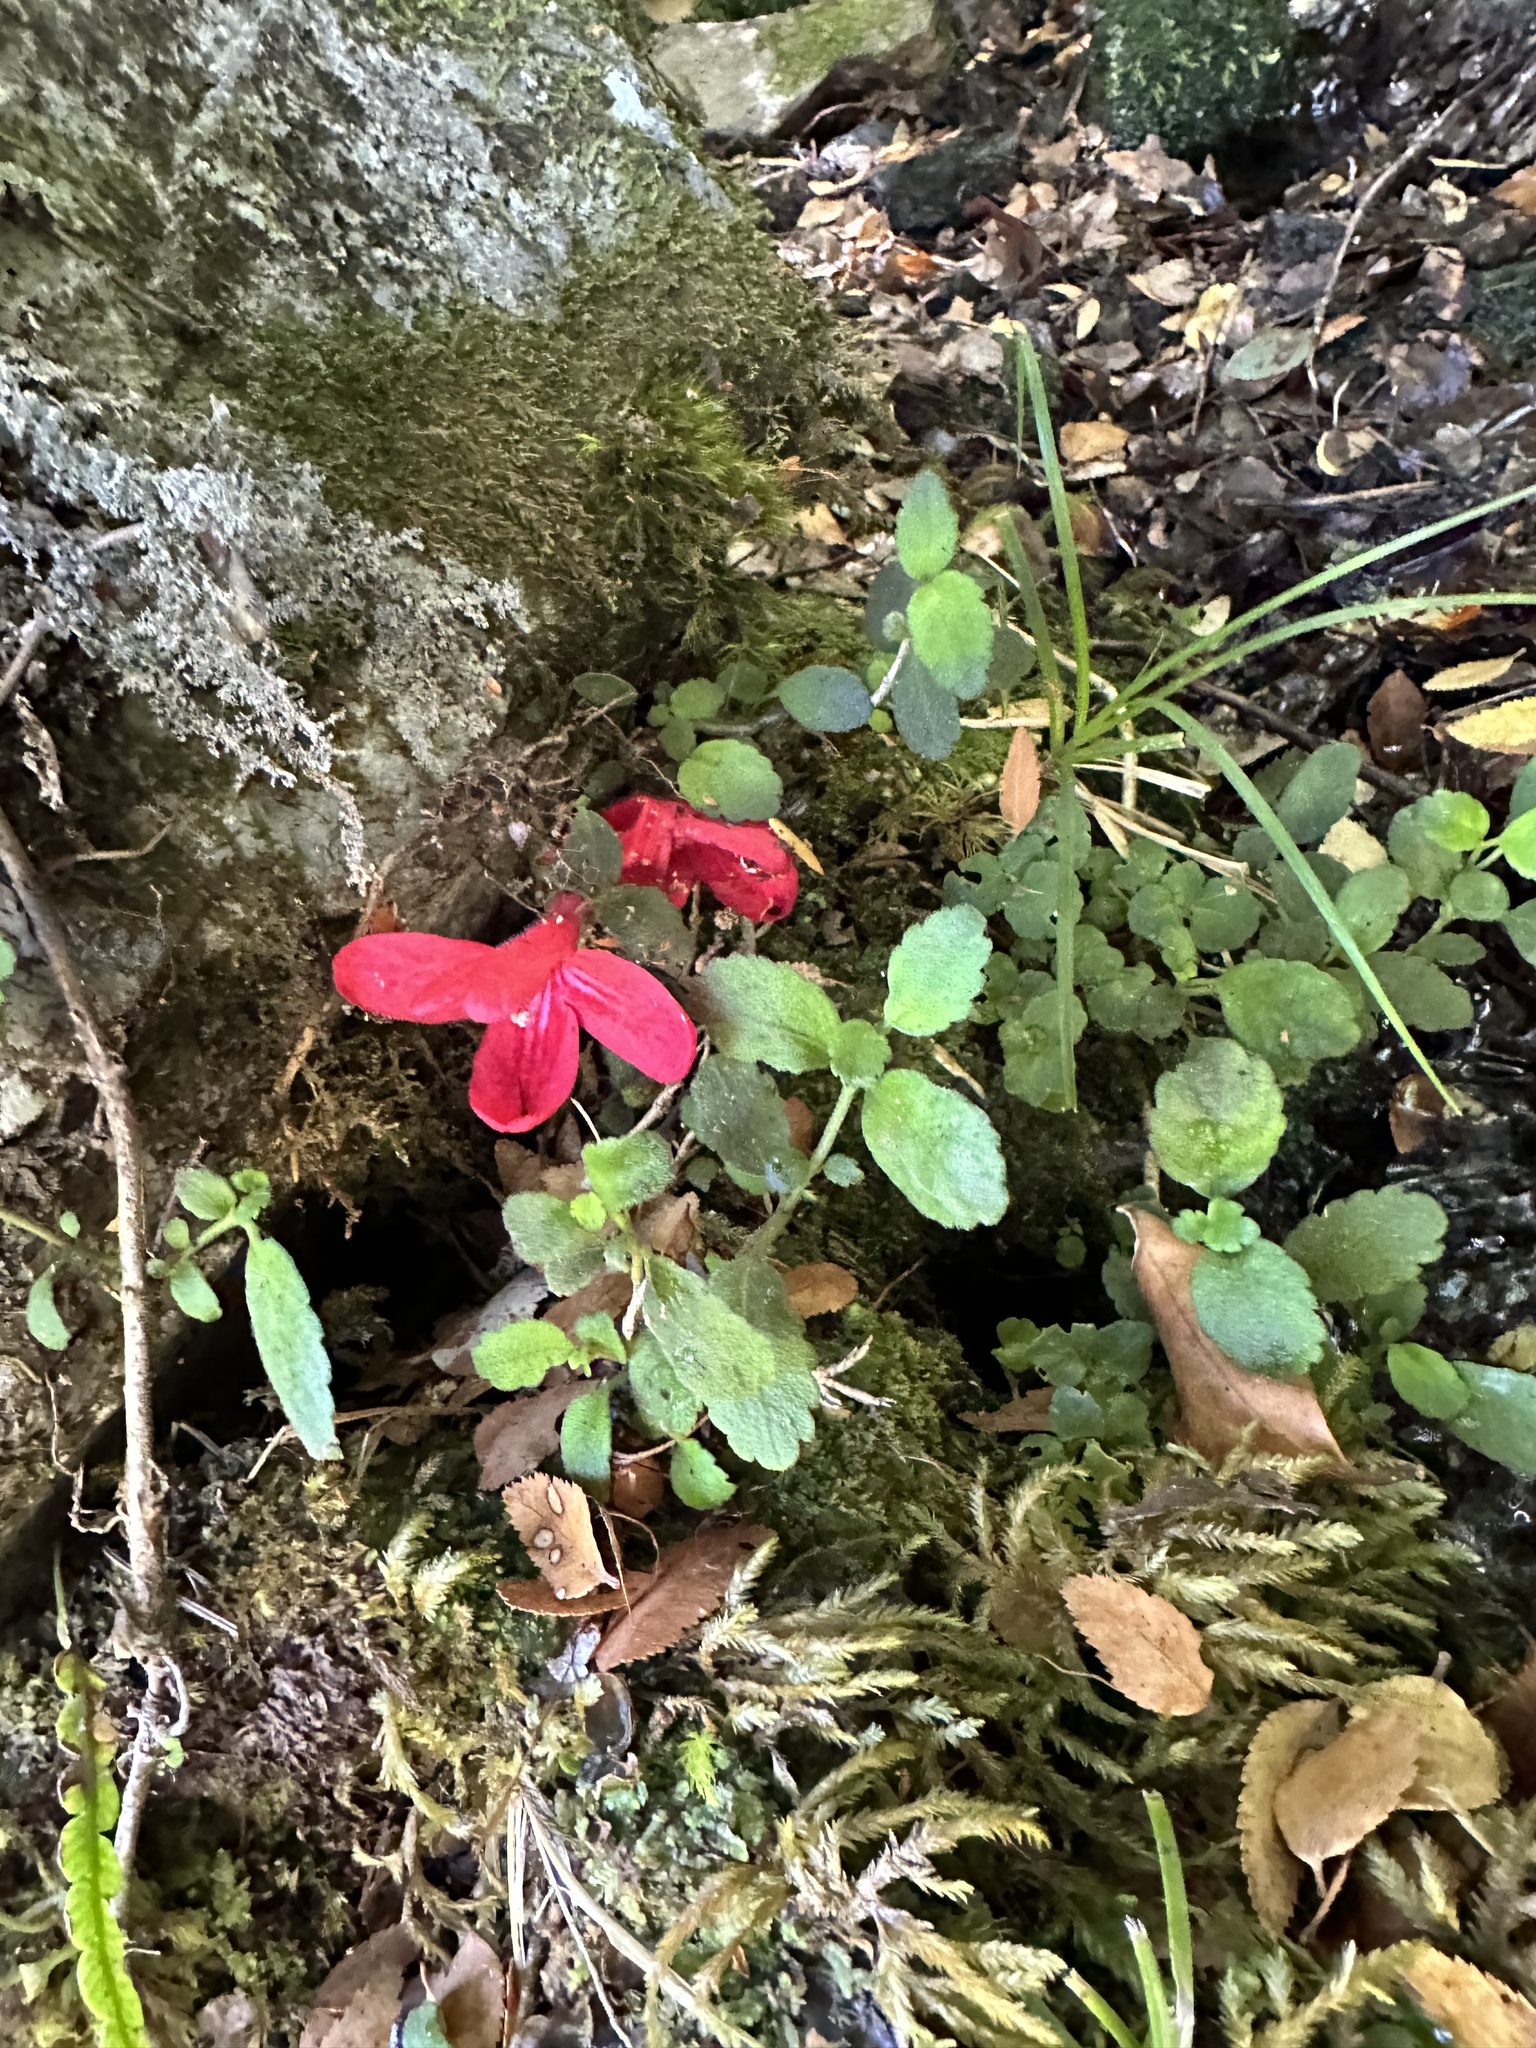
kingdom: Plantae
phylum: Tracheophyta
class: Magnoliopsida
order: Lamiales
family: Gesneriaceae
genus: Asteranthera
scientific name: Asteranthera ovata
